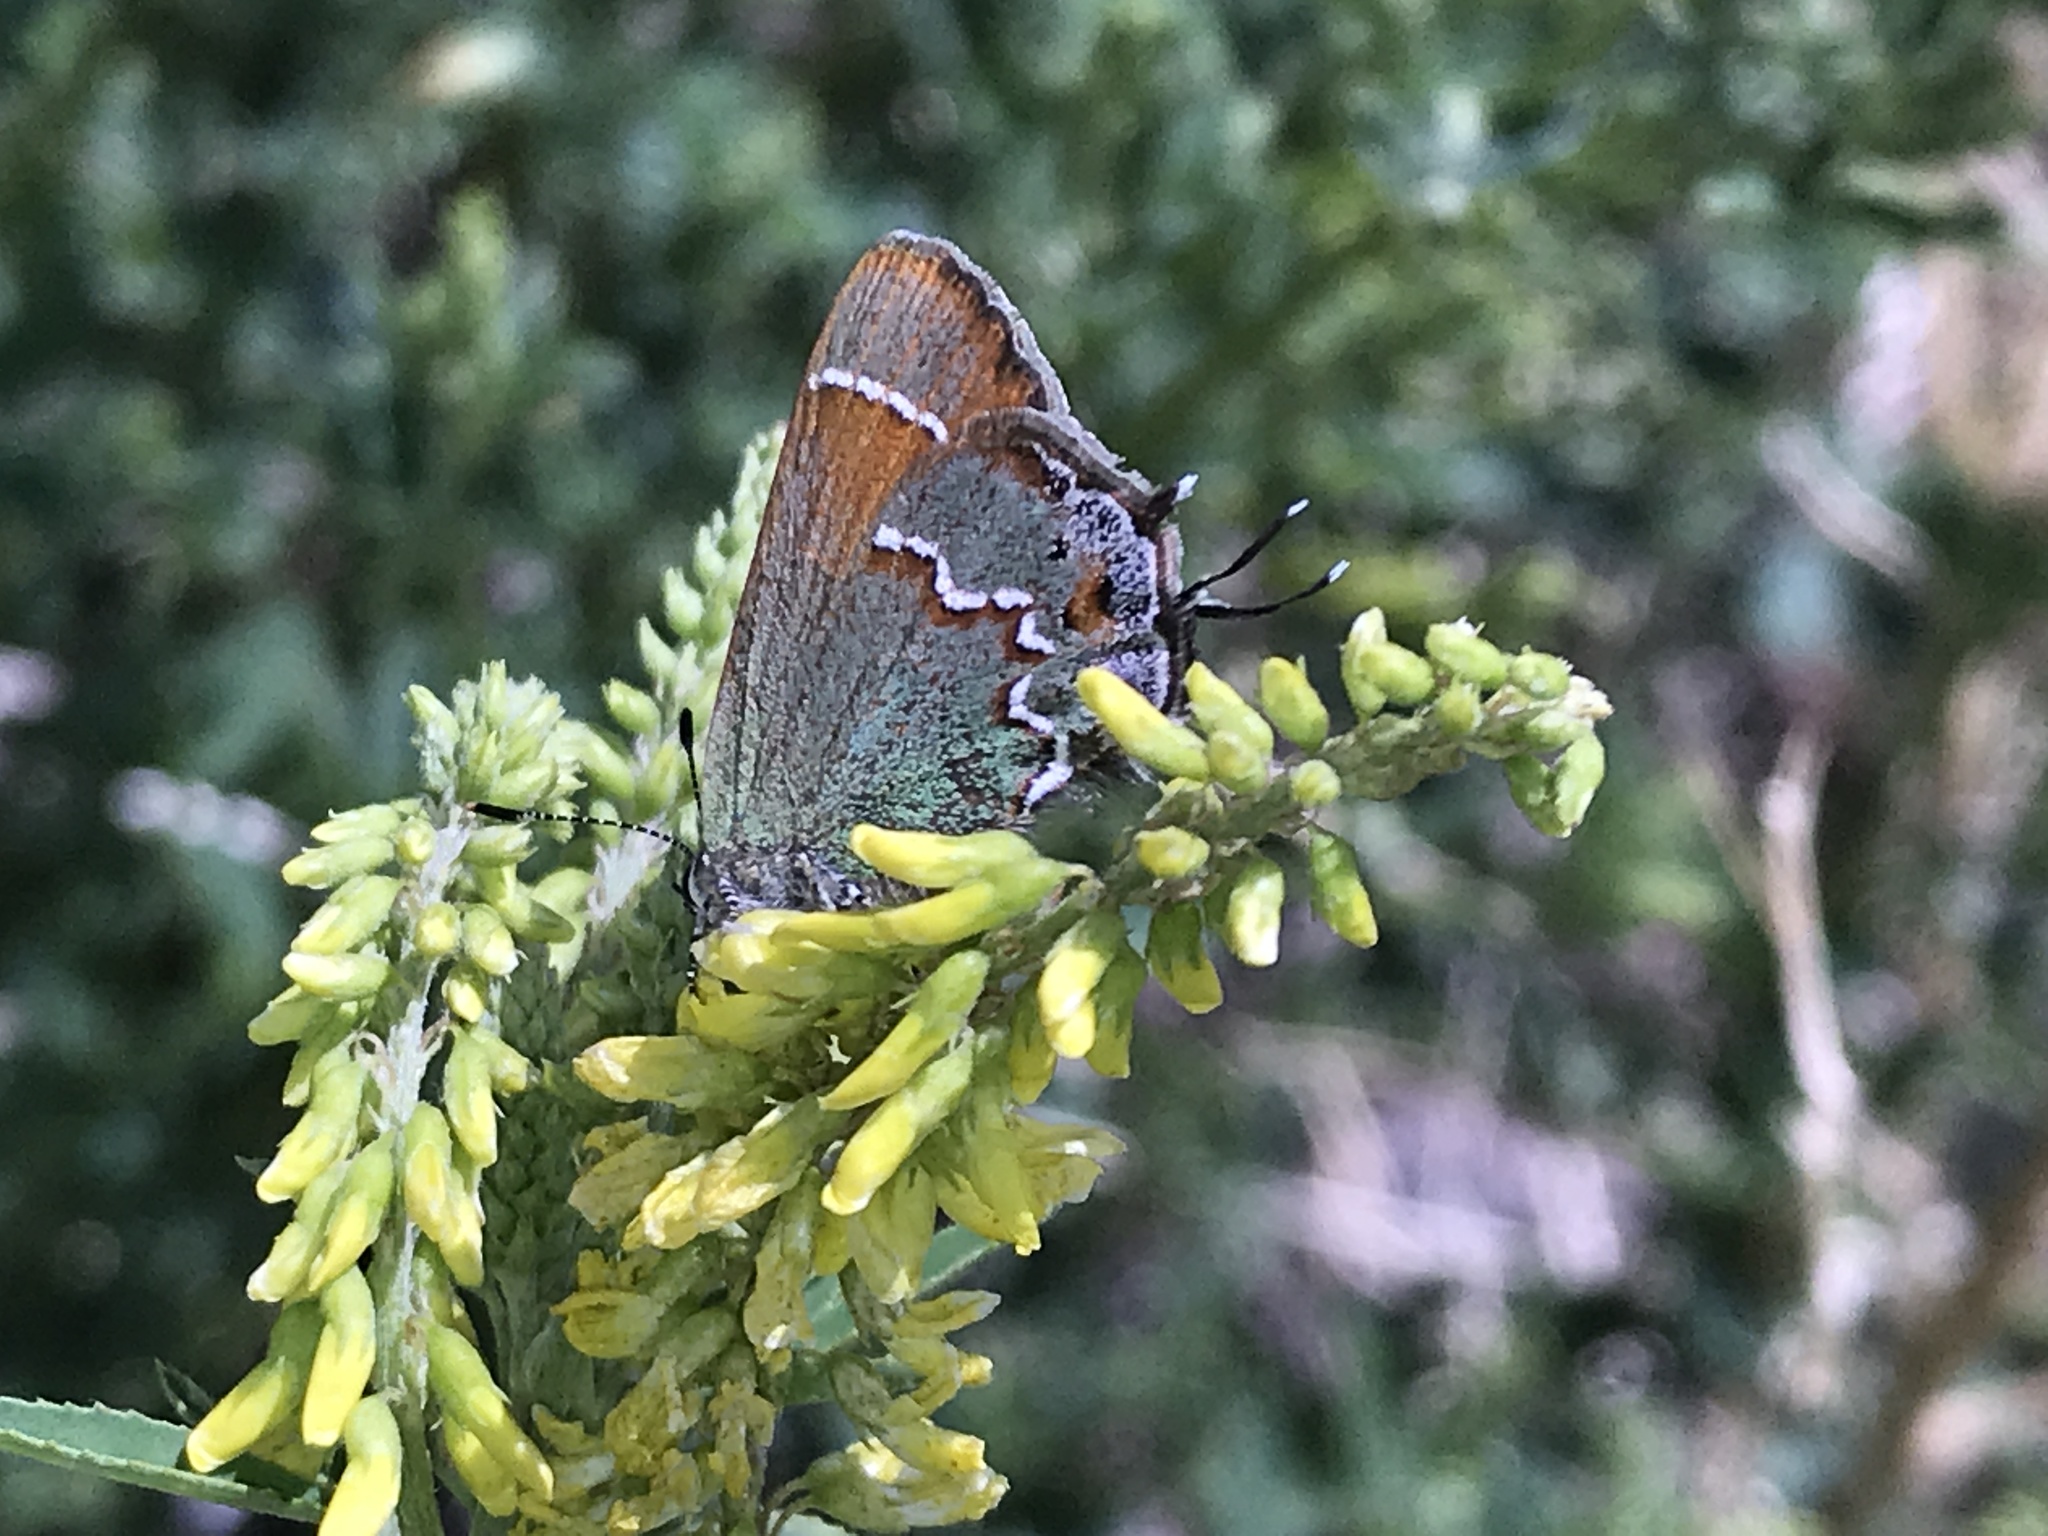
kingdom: Animalia
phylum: Arthropoda
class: Insecta
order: Lepidoptera
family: Lycaenidae
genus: Mitoura
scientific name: Mitoura siva
